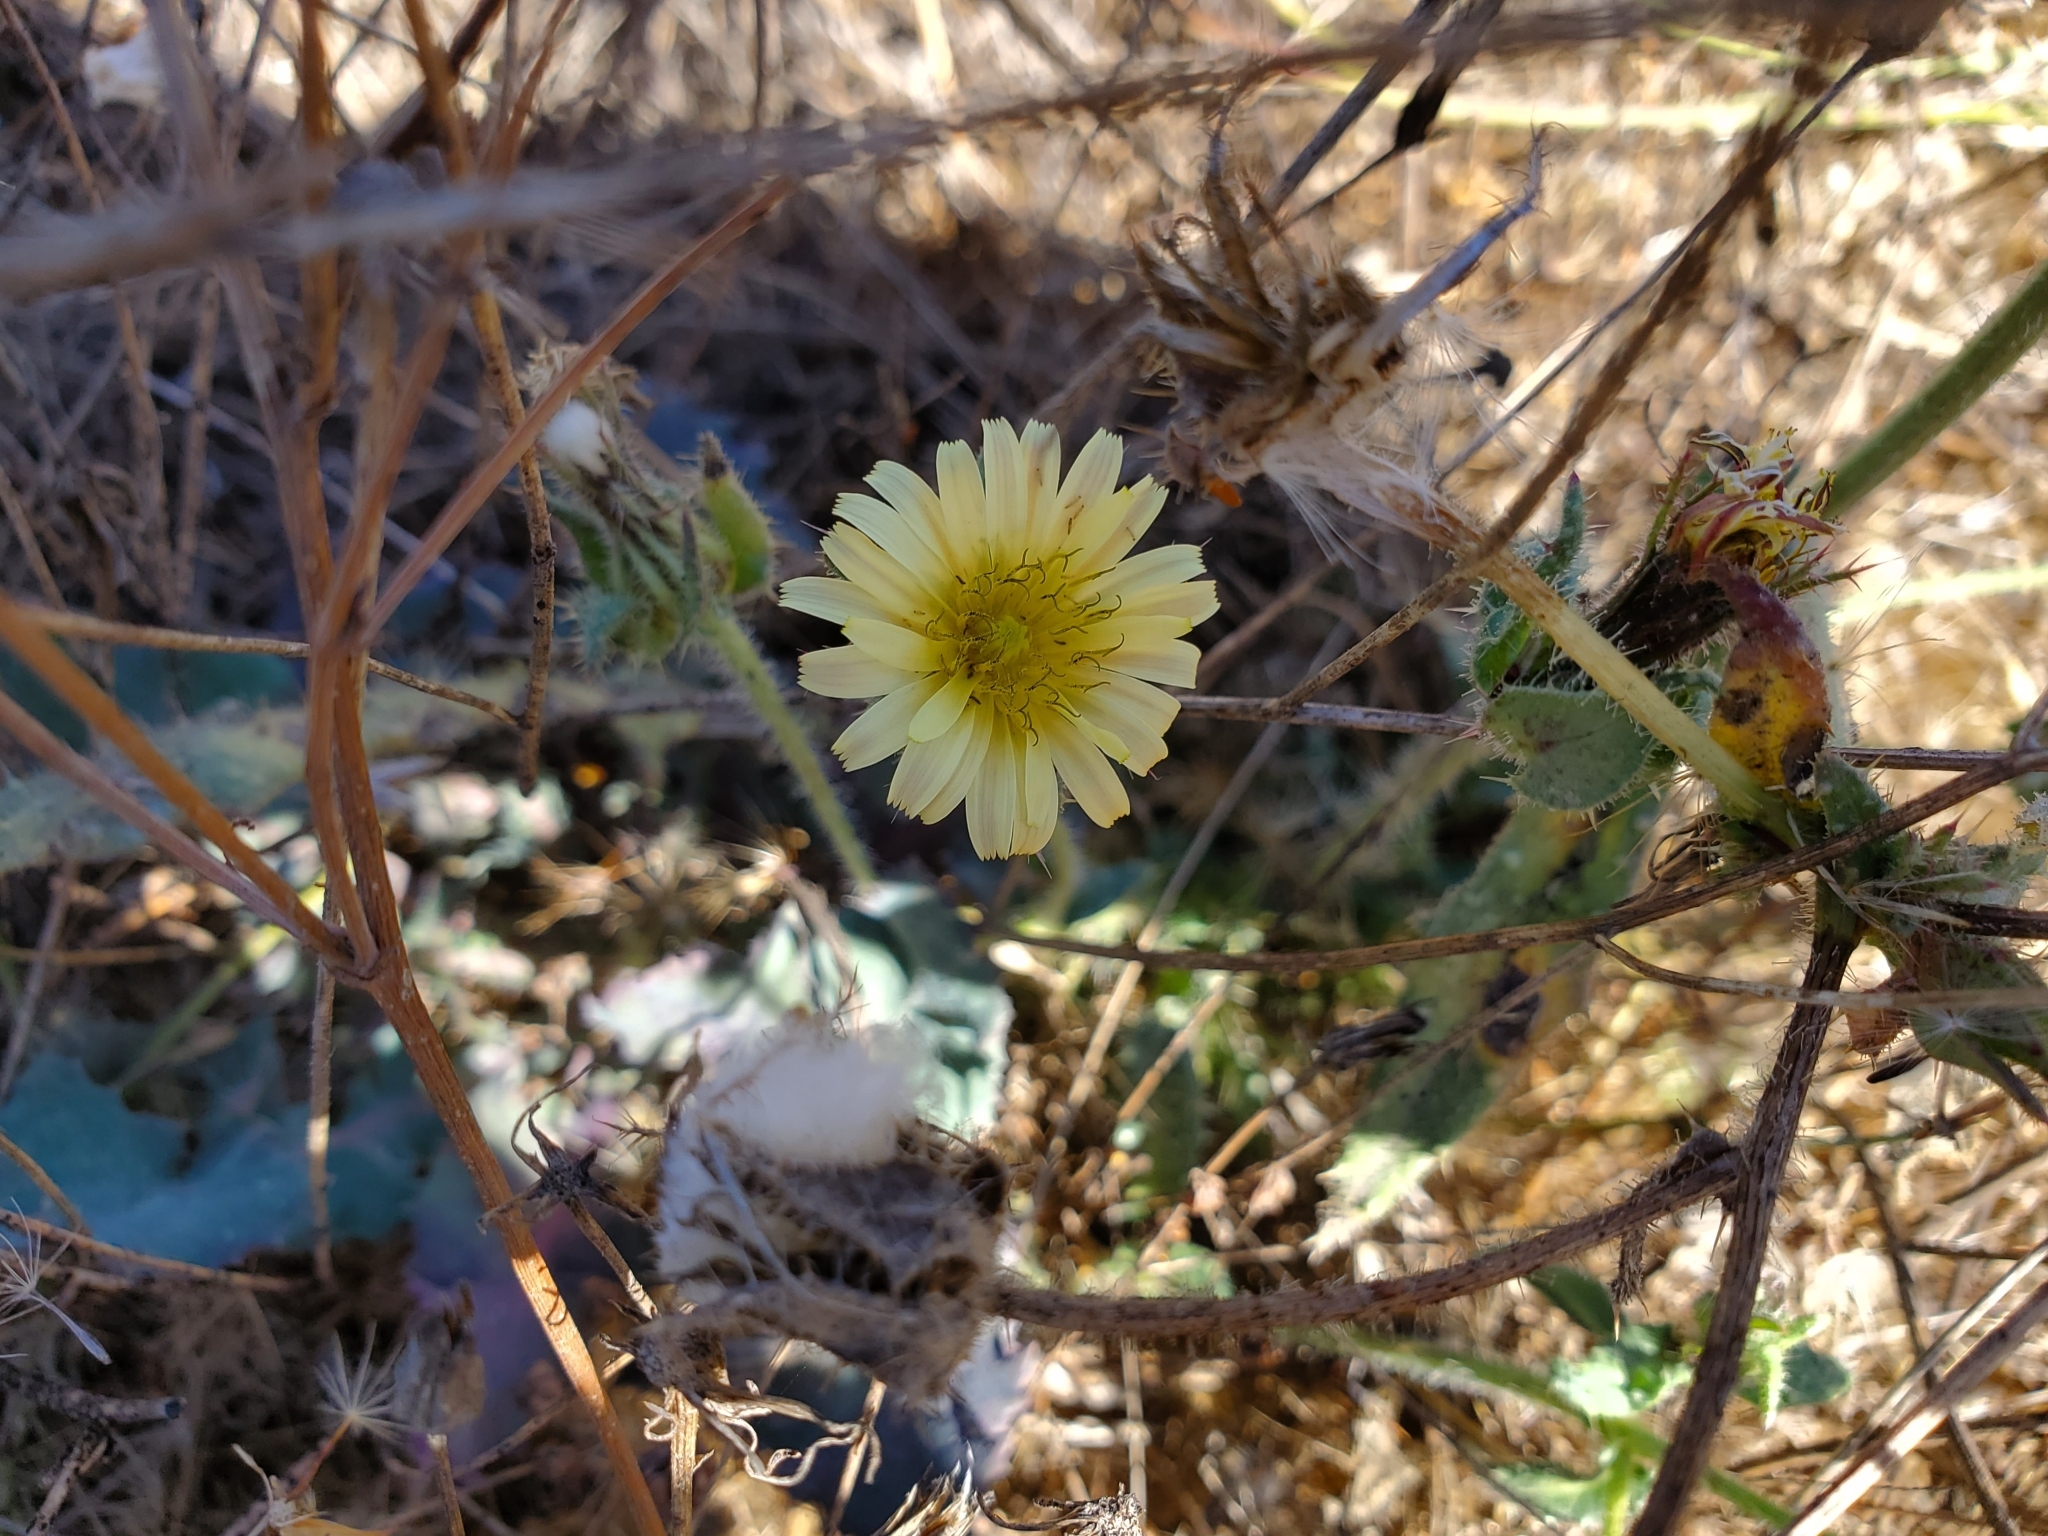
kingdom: Plantae
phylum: Tracheophyta
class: Magnoliopsida
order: Asterales
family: Asteraceae
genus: Helminthotheca
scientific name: Helminthotheca echioides
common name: Ox-tongue
